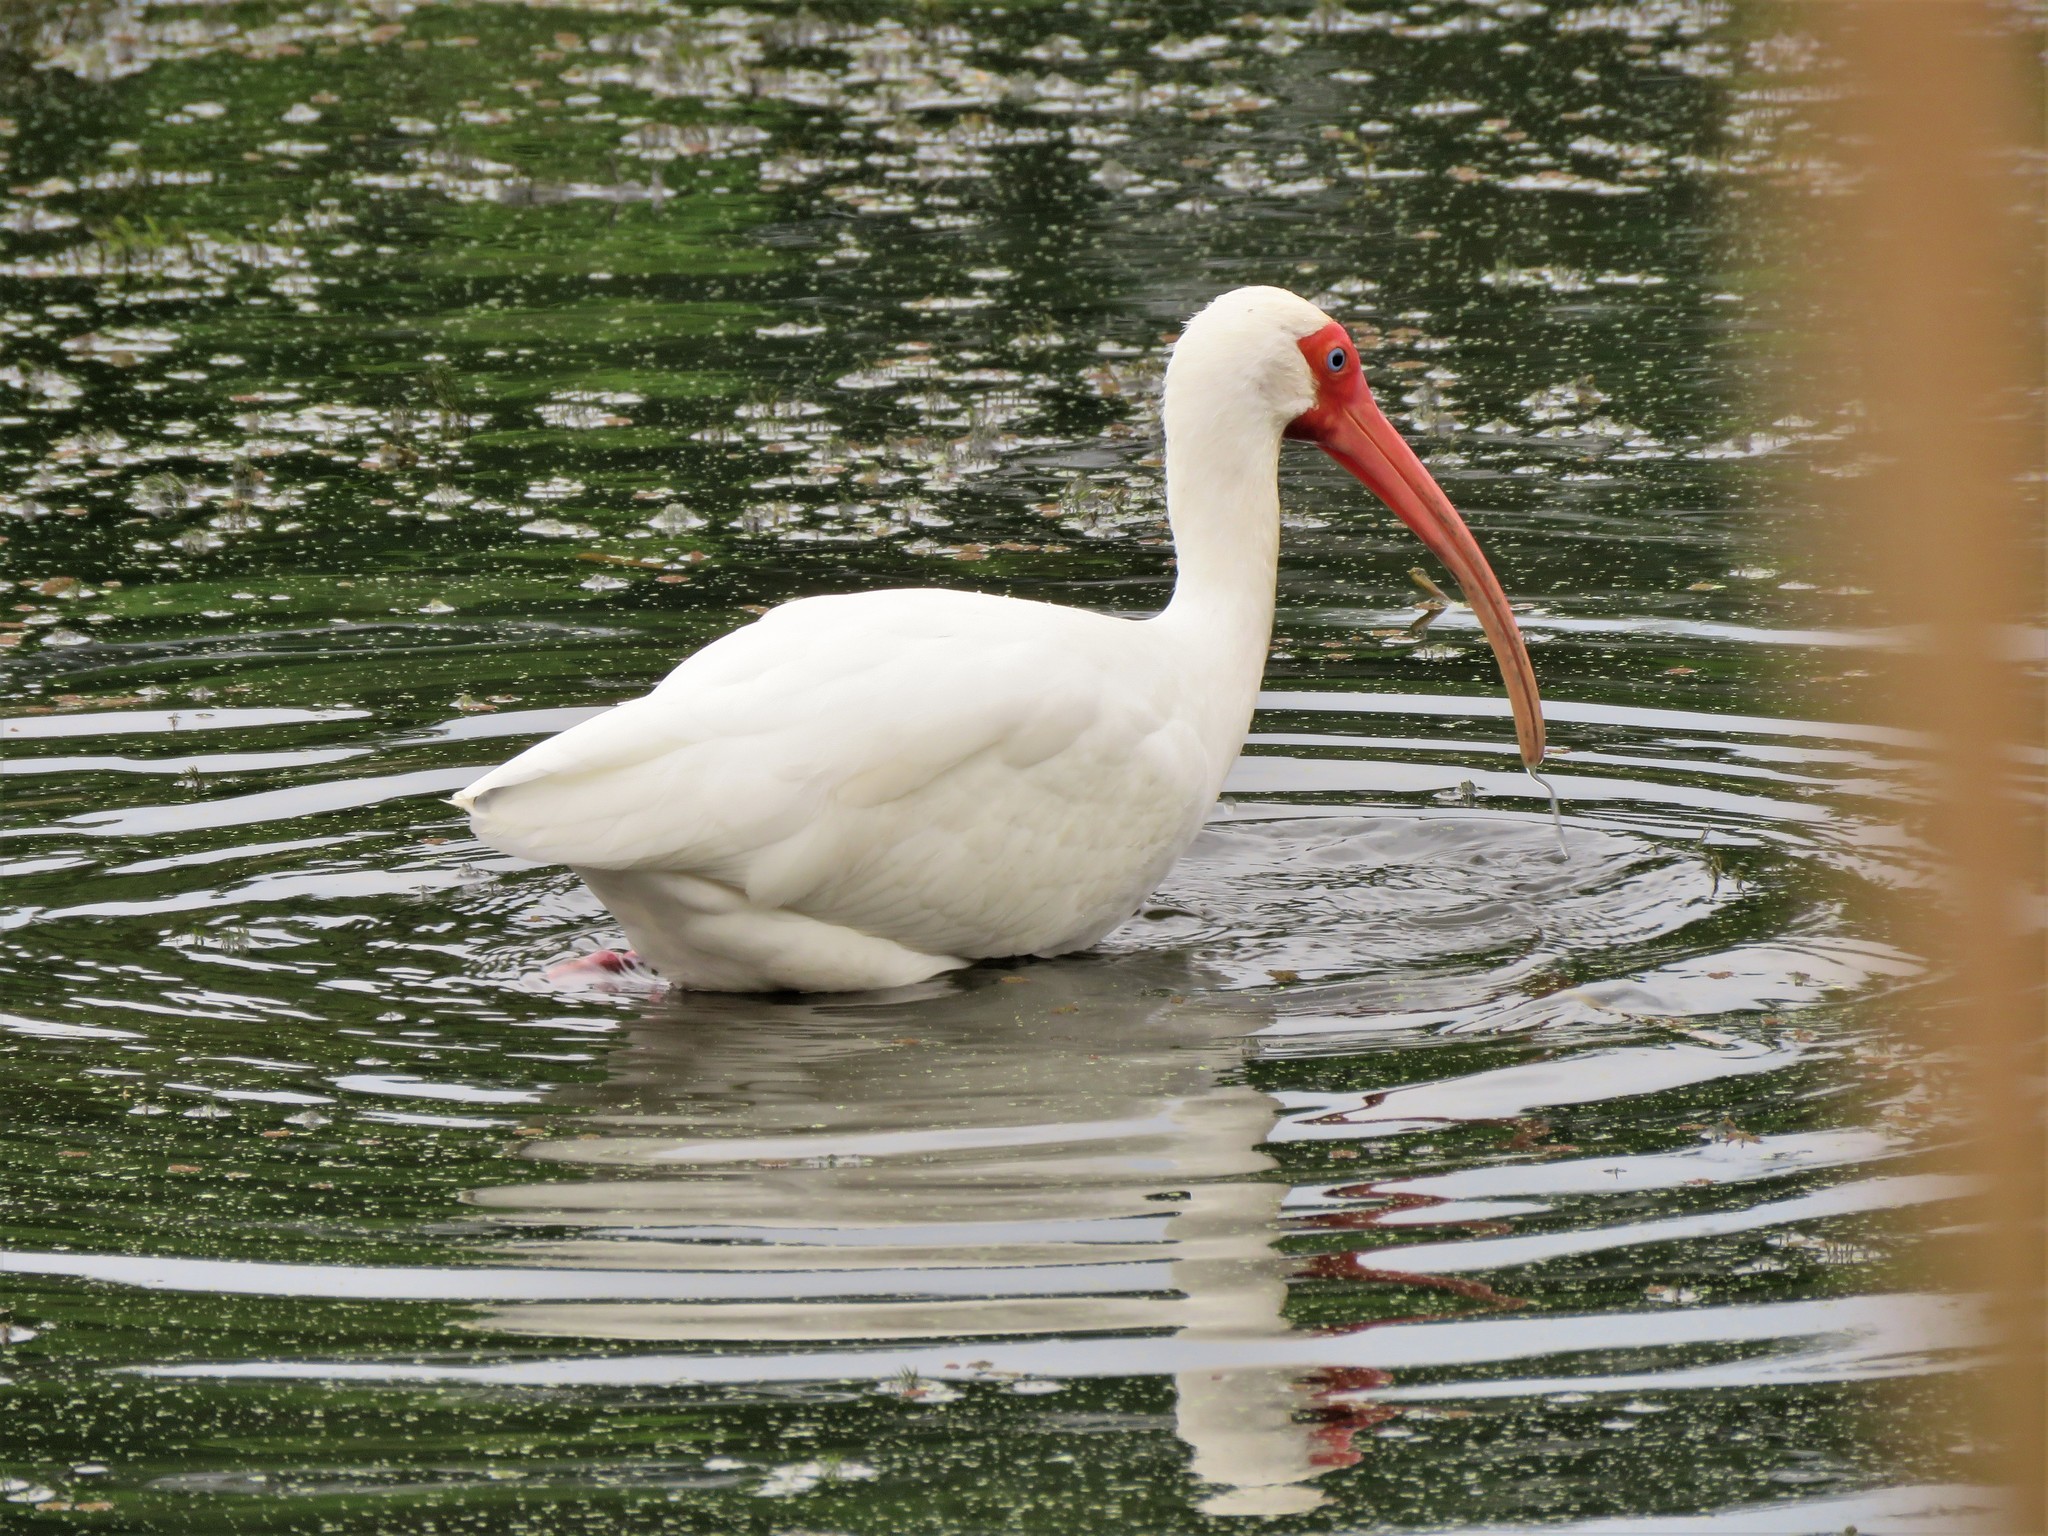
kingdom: Animalia
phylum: Chordata
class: Aves
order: Pelecaniformes
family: Threskiornithidae
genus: Eudocimus
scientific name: Eudocimus albus
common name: White ibis
